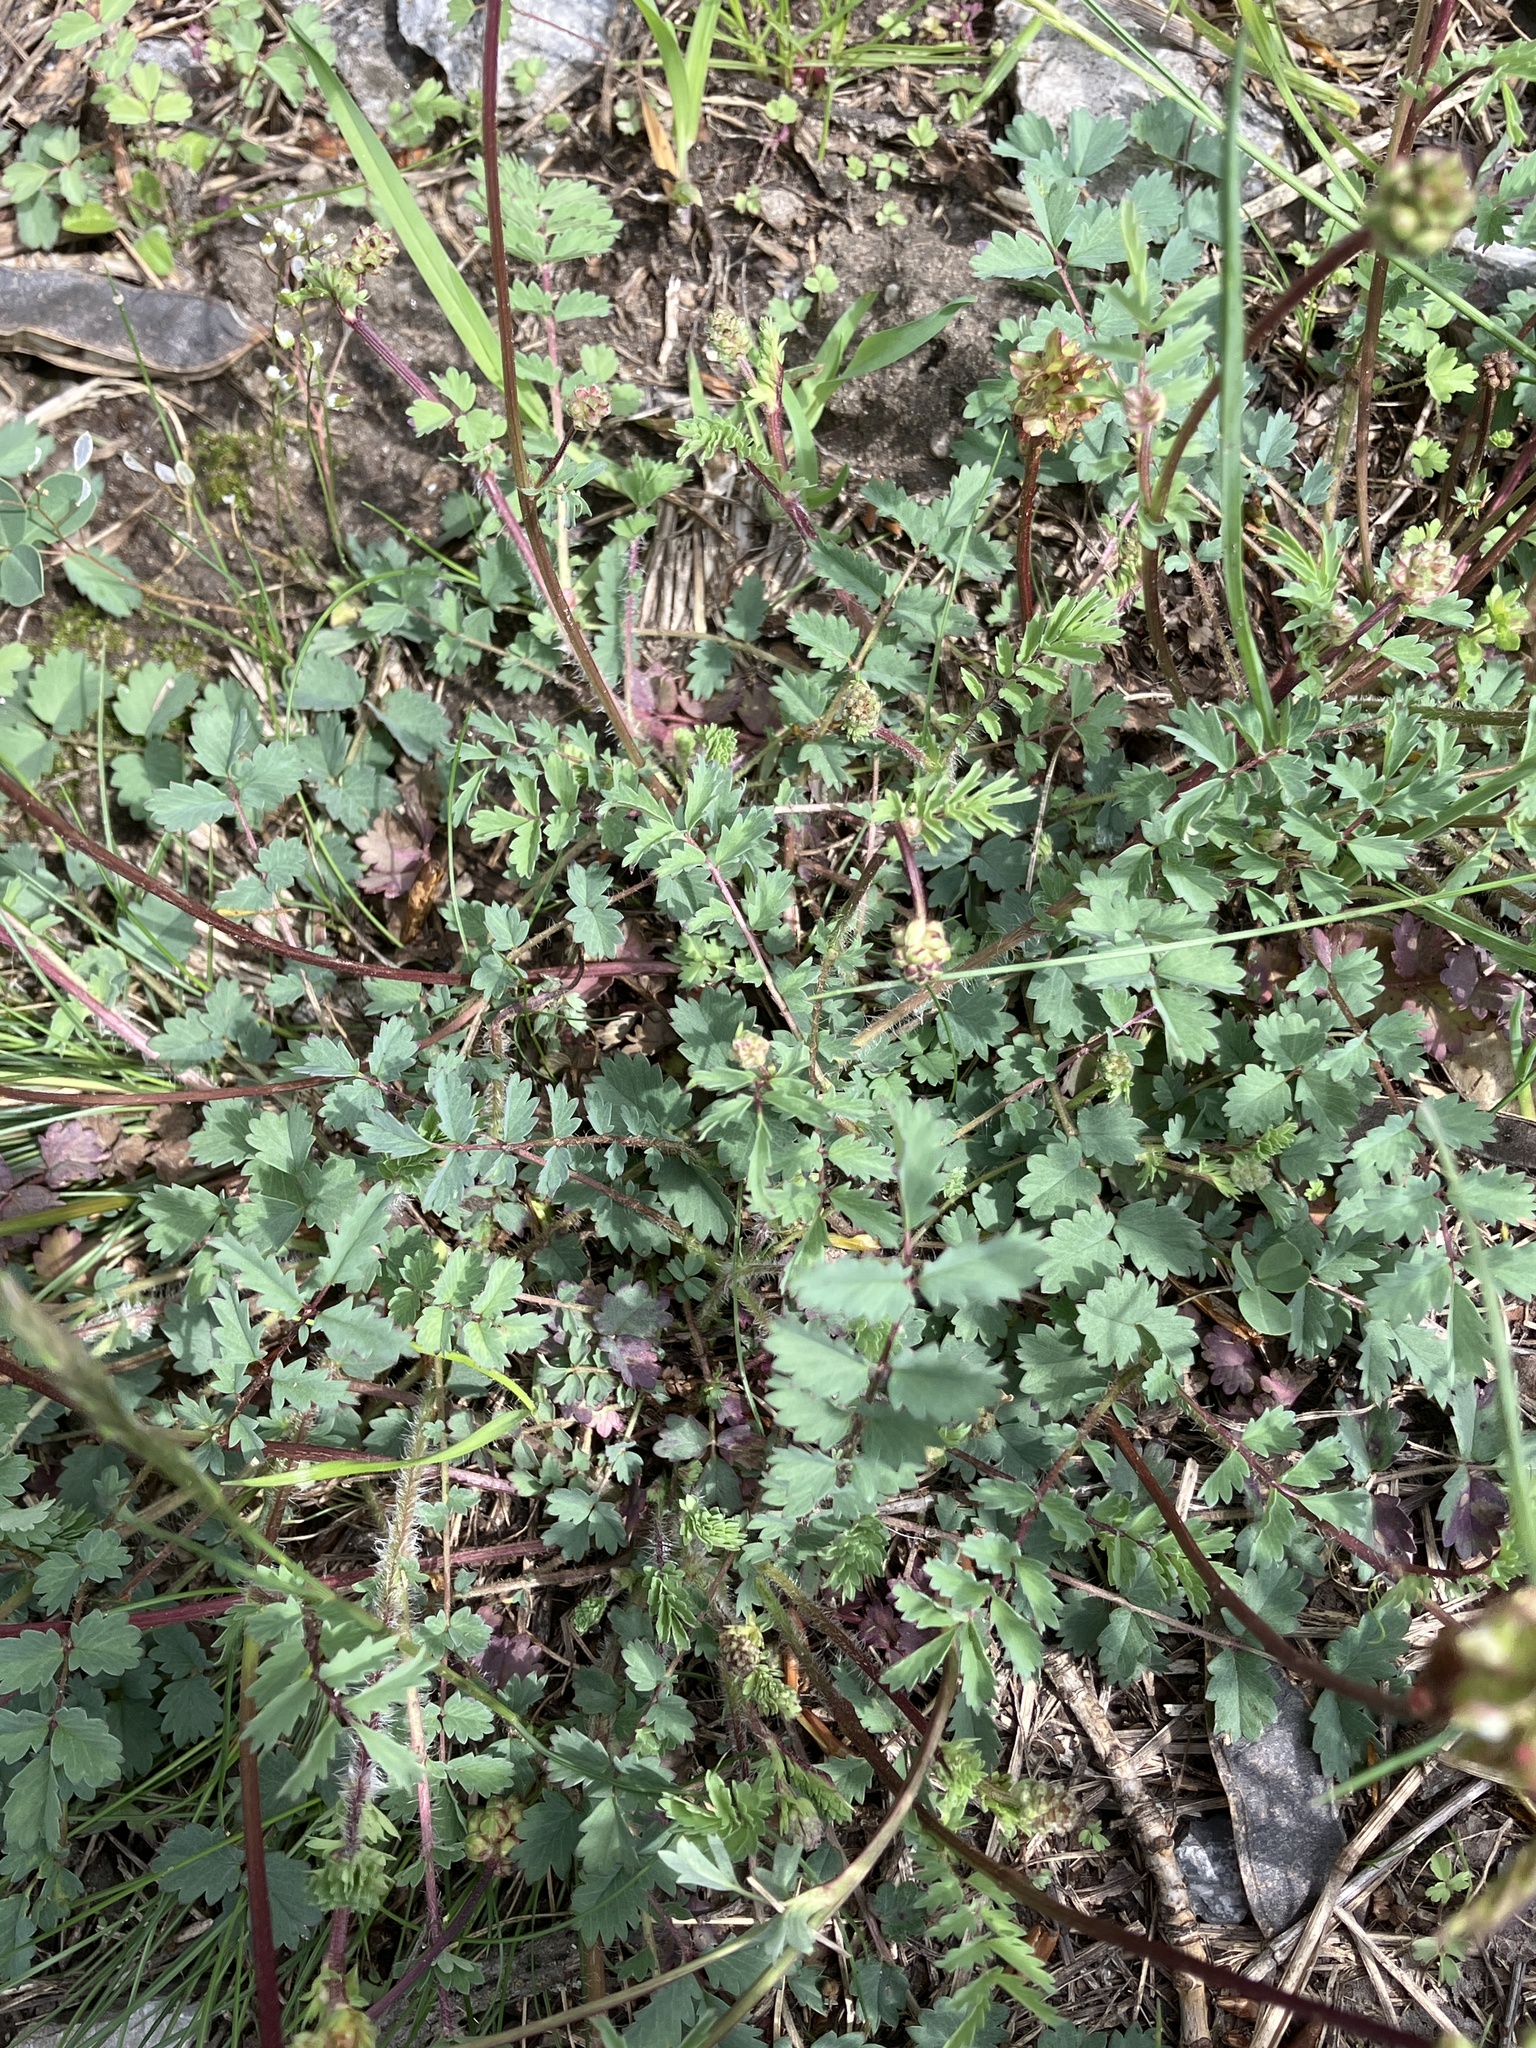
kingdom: Plantae
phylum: Tracheophyta
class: Magnoliopsida
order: Rosales
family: Rosaceae
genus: Poterium
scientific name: Poterium sanguisorba
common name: Salad burnet
